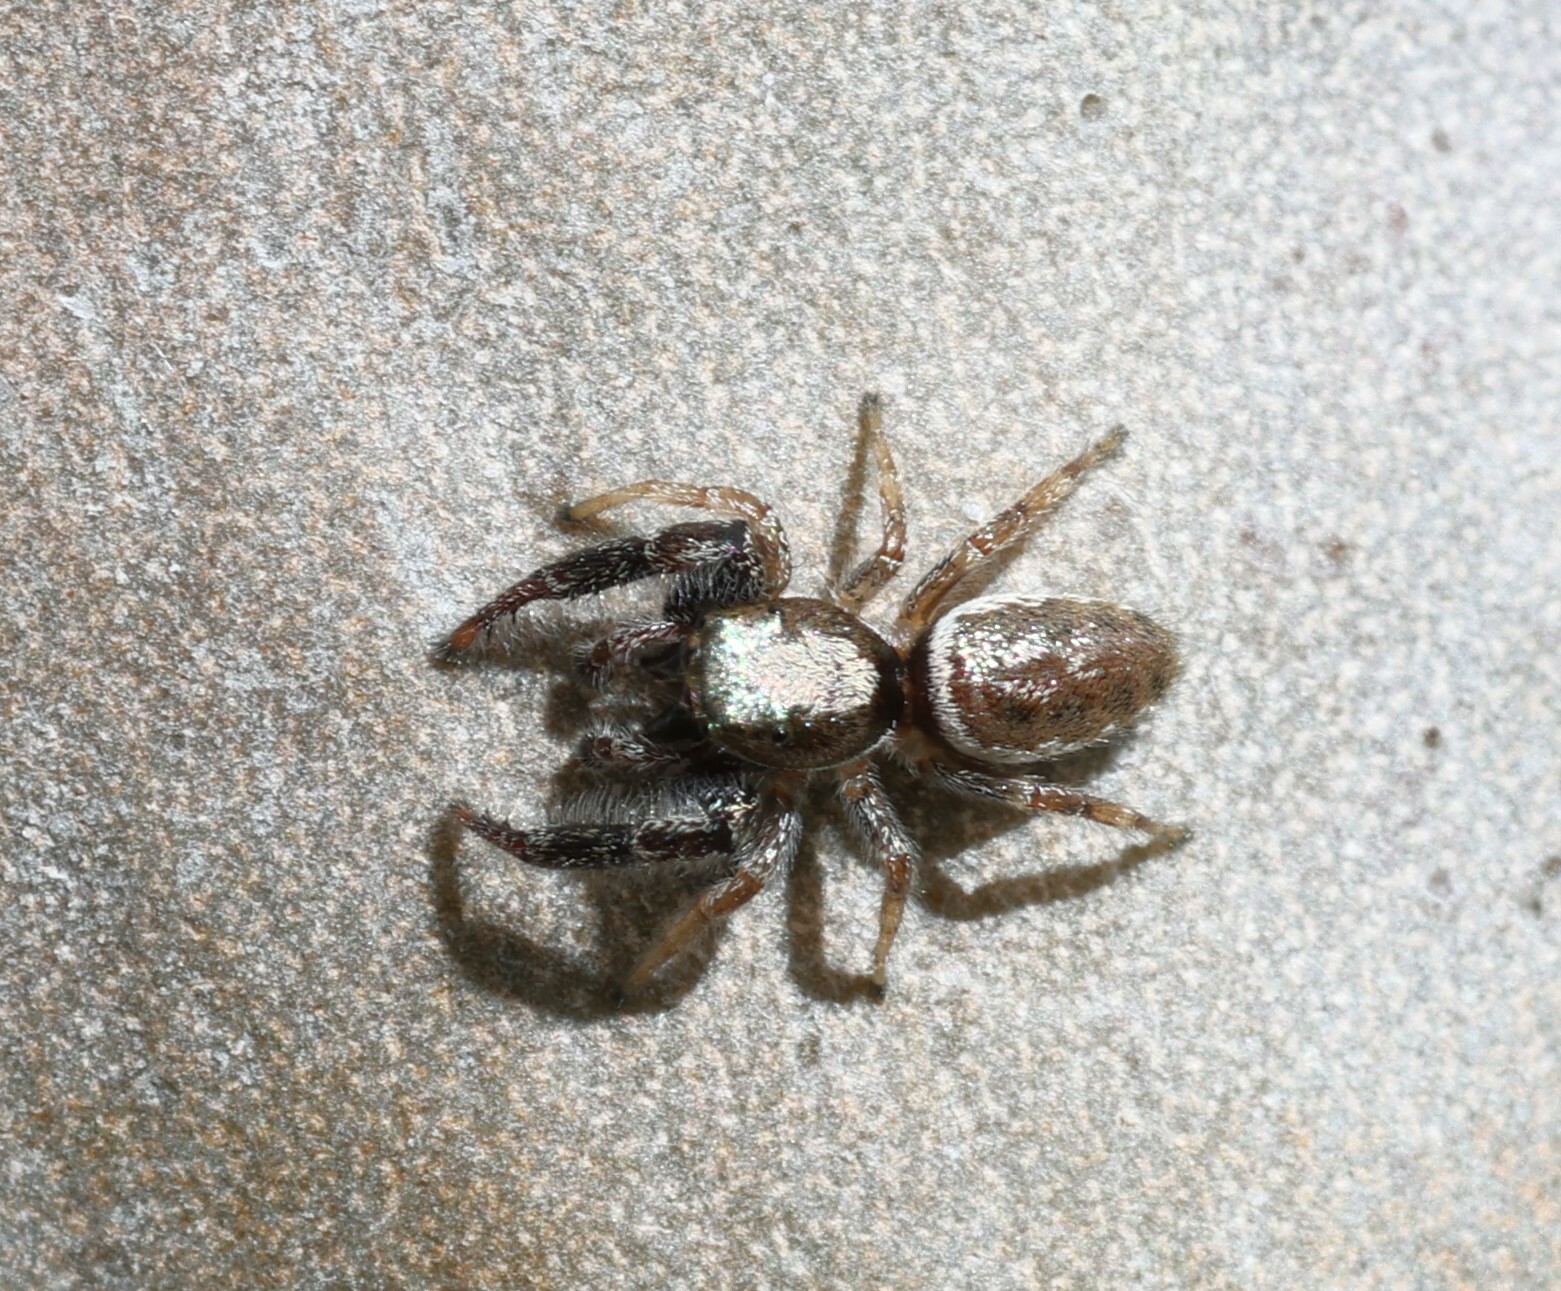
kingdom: Animalia
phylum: Arthropoda
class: Arachnida
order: Araneae
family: Salticidae
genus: Metaphidippus
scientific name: Metaphidippus siticulosus
